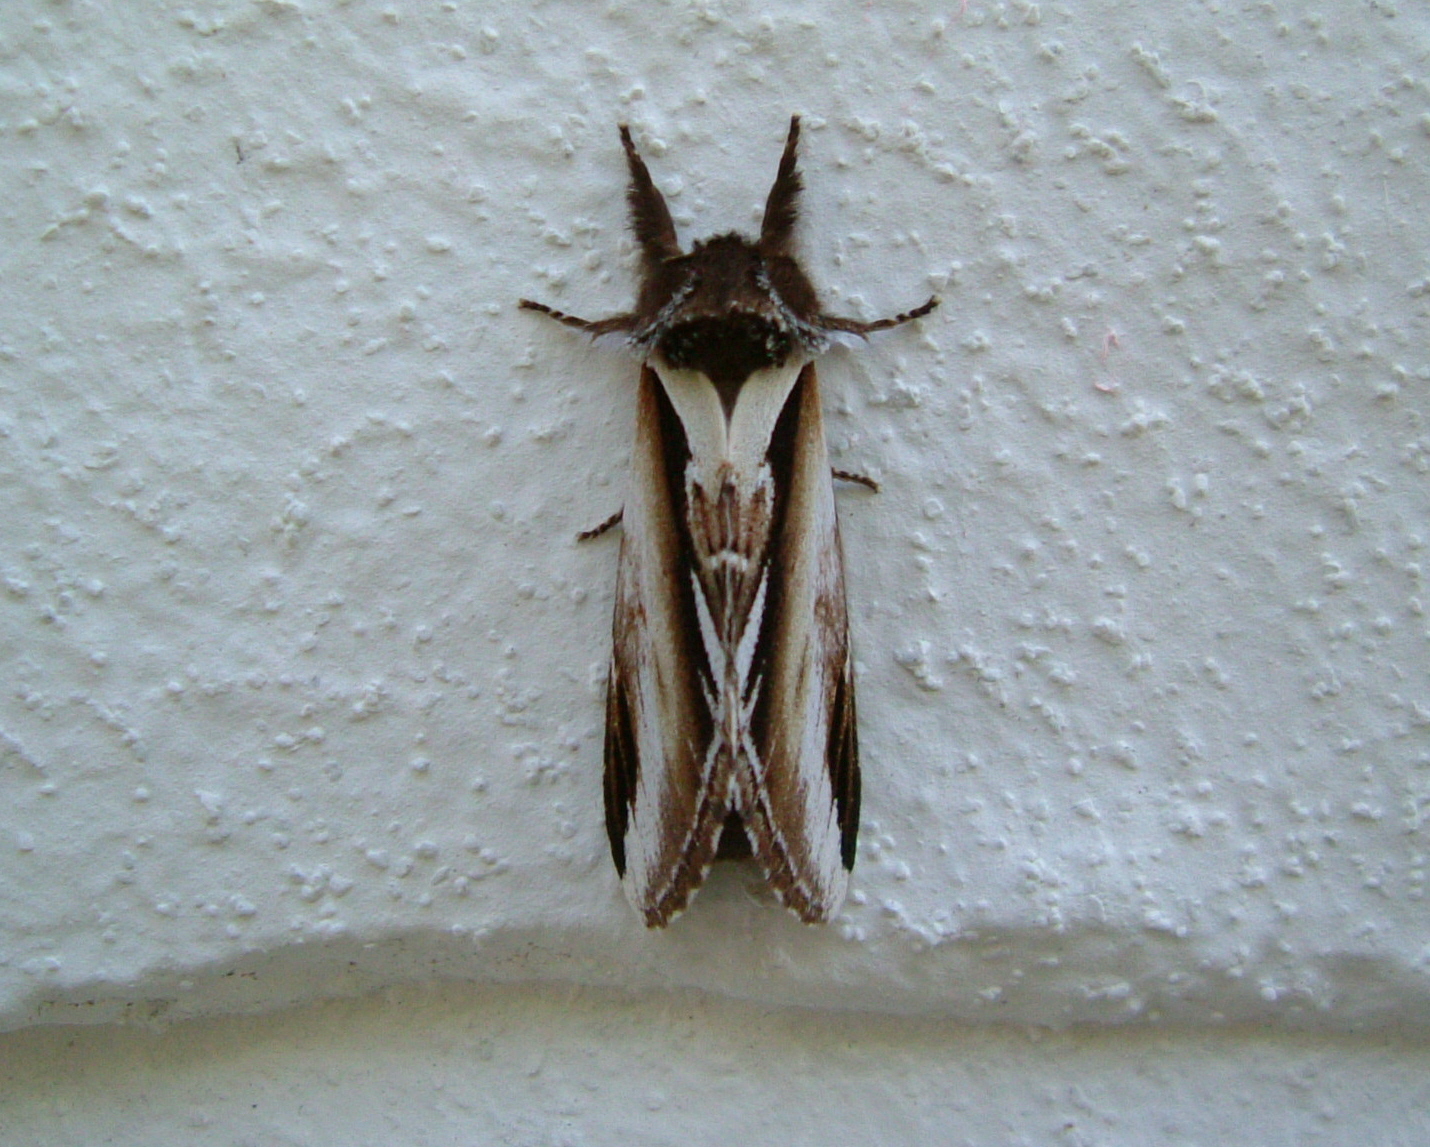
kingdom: Animalia
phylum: Arthropoda
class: Insecta
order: Lepidoptera
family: Notodontidae
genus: Pheosia
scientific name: Pheosia gnoma
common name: Lesser swallow prominent
